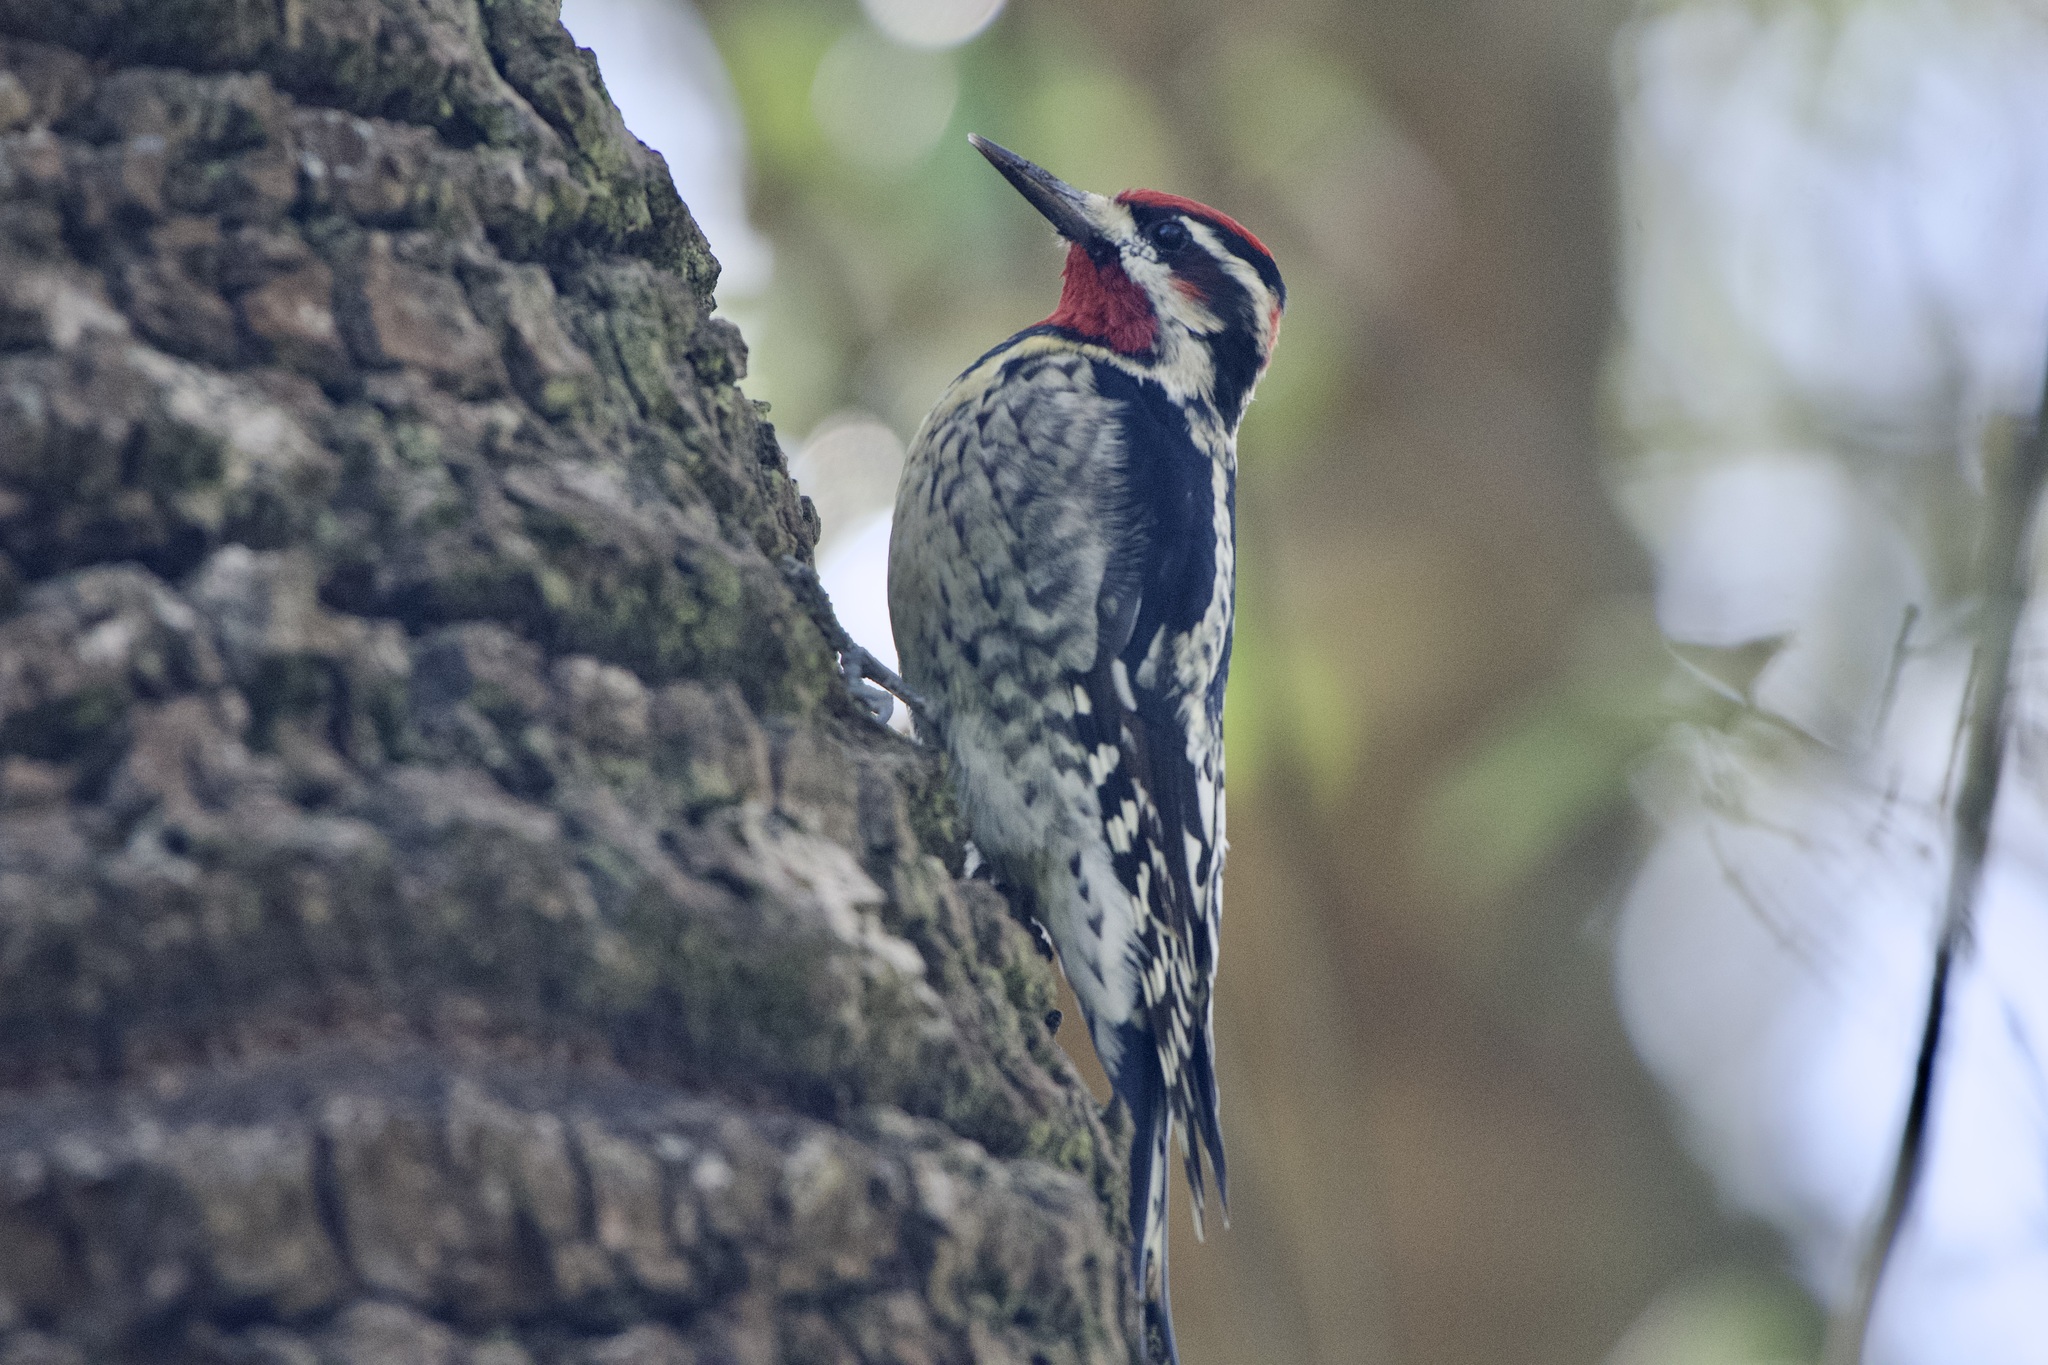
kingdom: Animalia
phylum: Chordata
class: Aves
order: Piciformes
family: Picidae
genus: Sphyrapicus
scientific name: Sphyrapicus nuchalis
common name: Red-naped sapsucker
